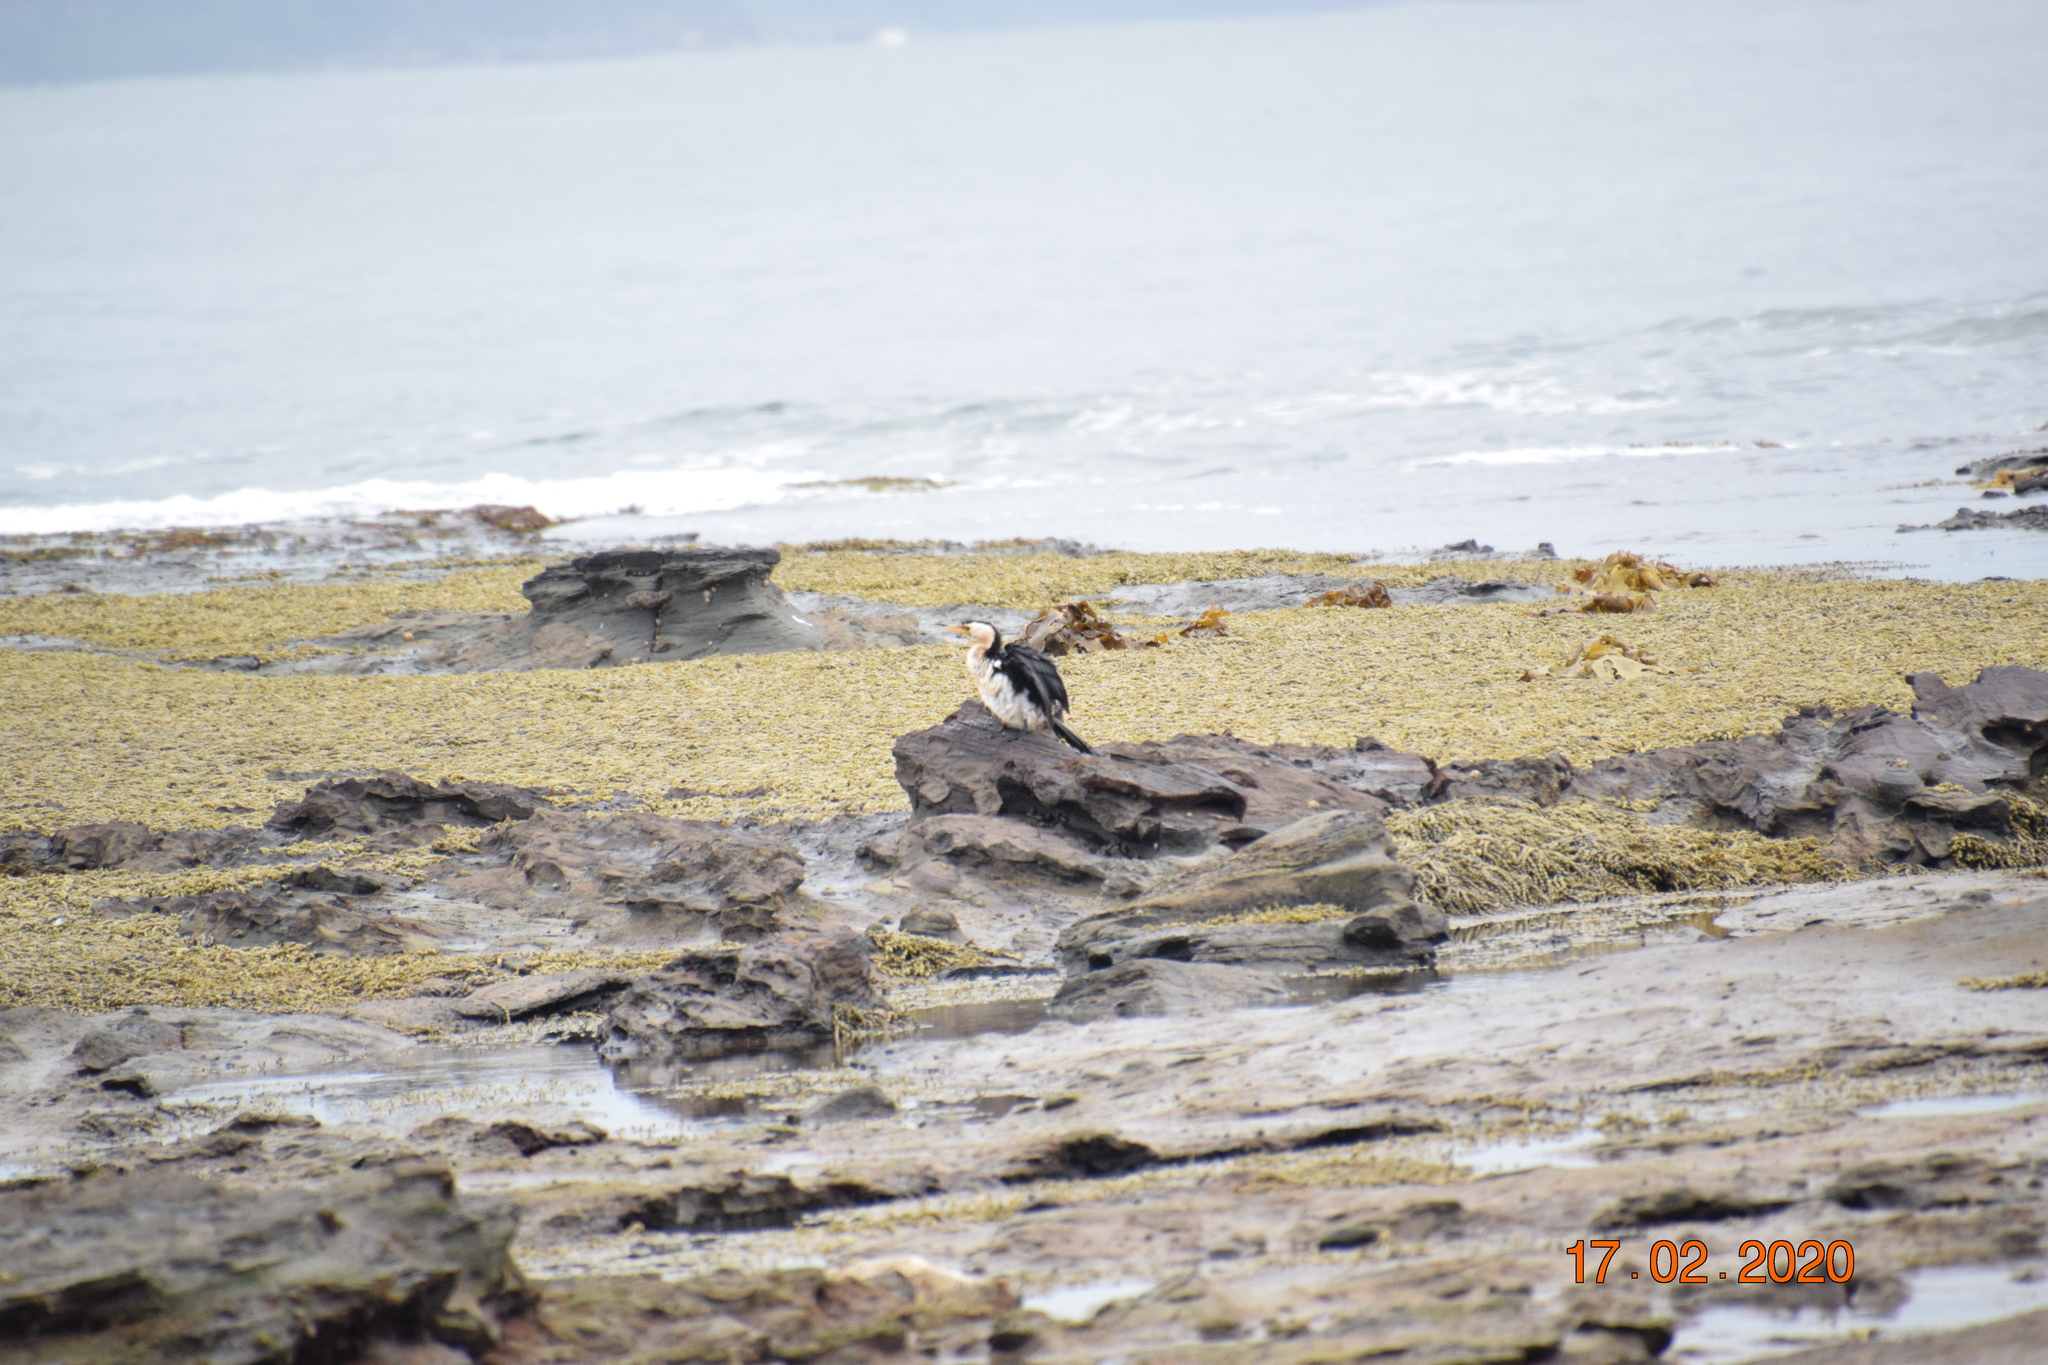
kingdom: Animalia
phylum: Chordata
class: Aves
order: Suliformes
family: Phalacrocoracidae
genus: Microcarbo
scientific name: Microcarbo melanoleucos
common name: Little pied cormorant
